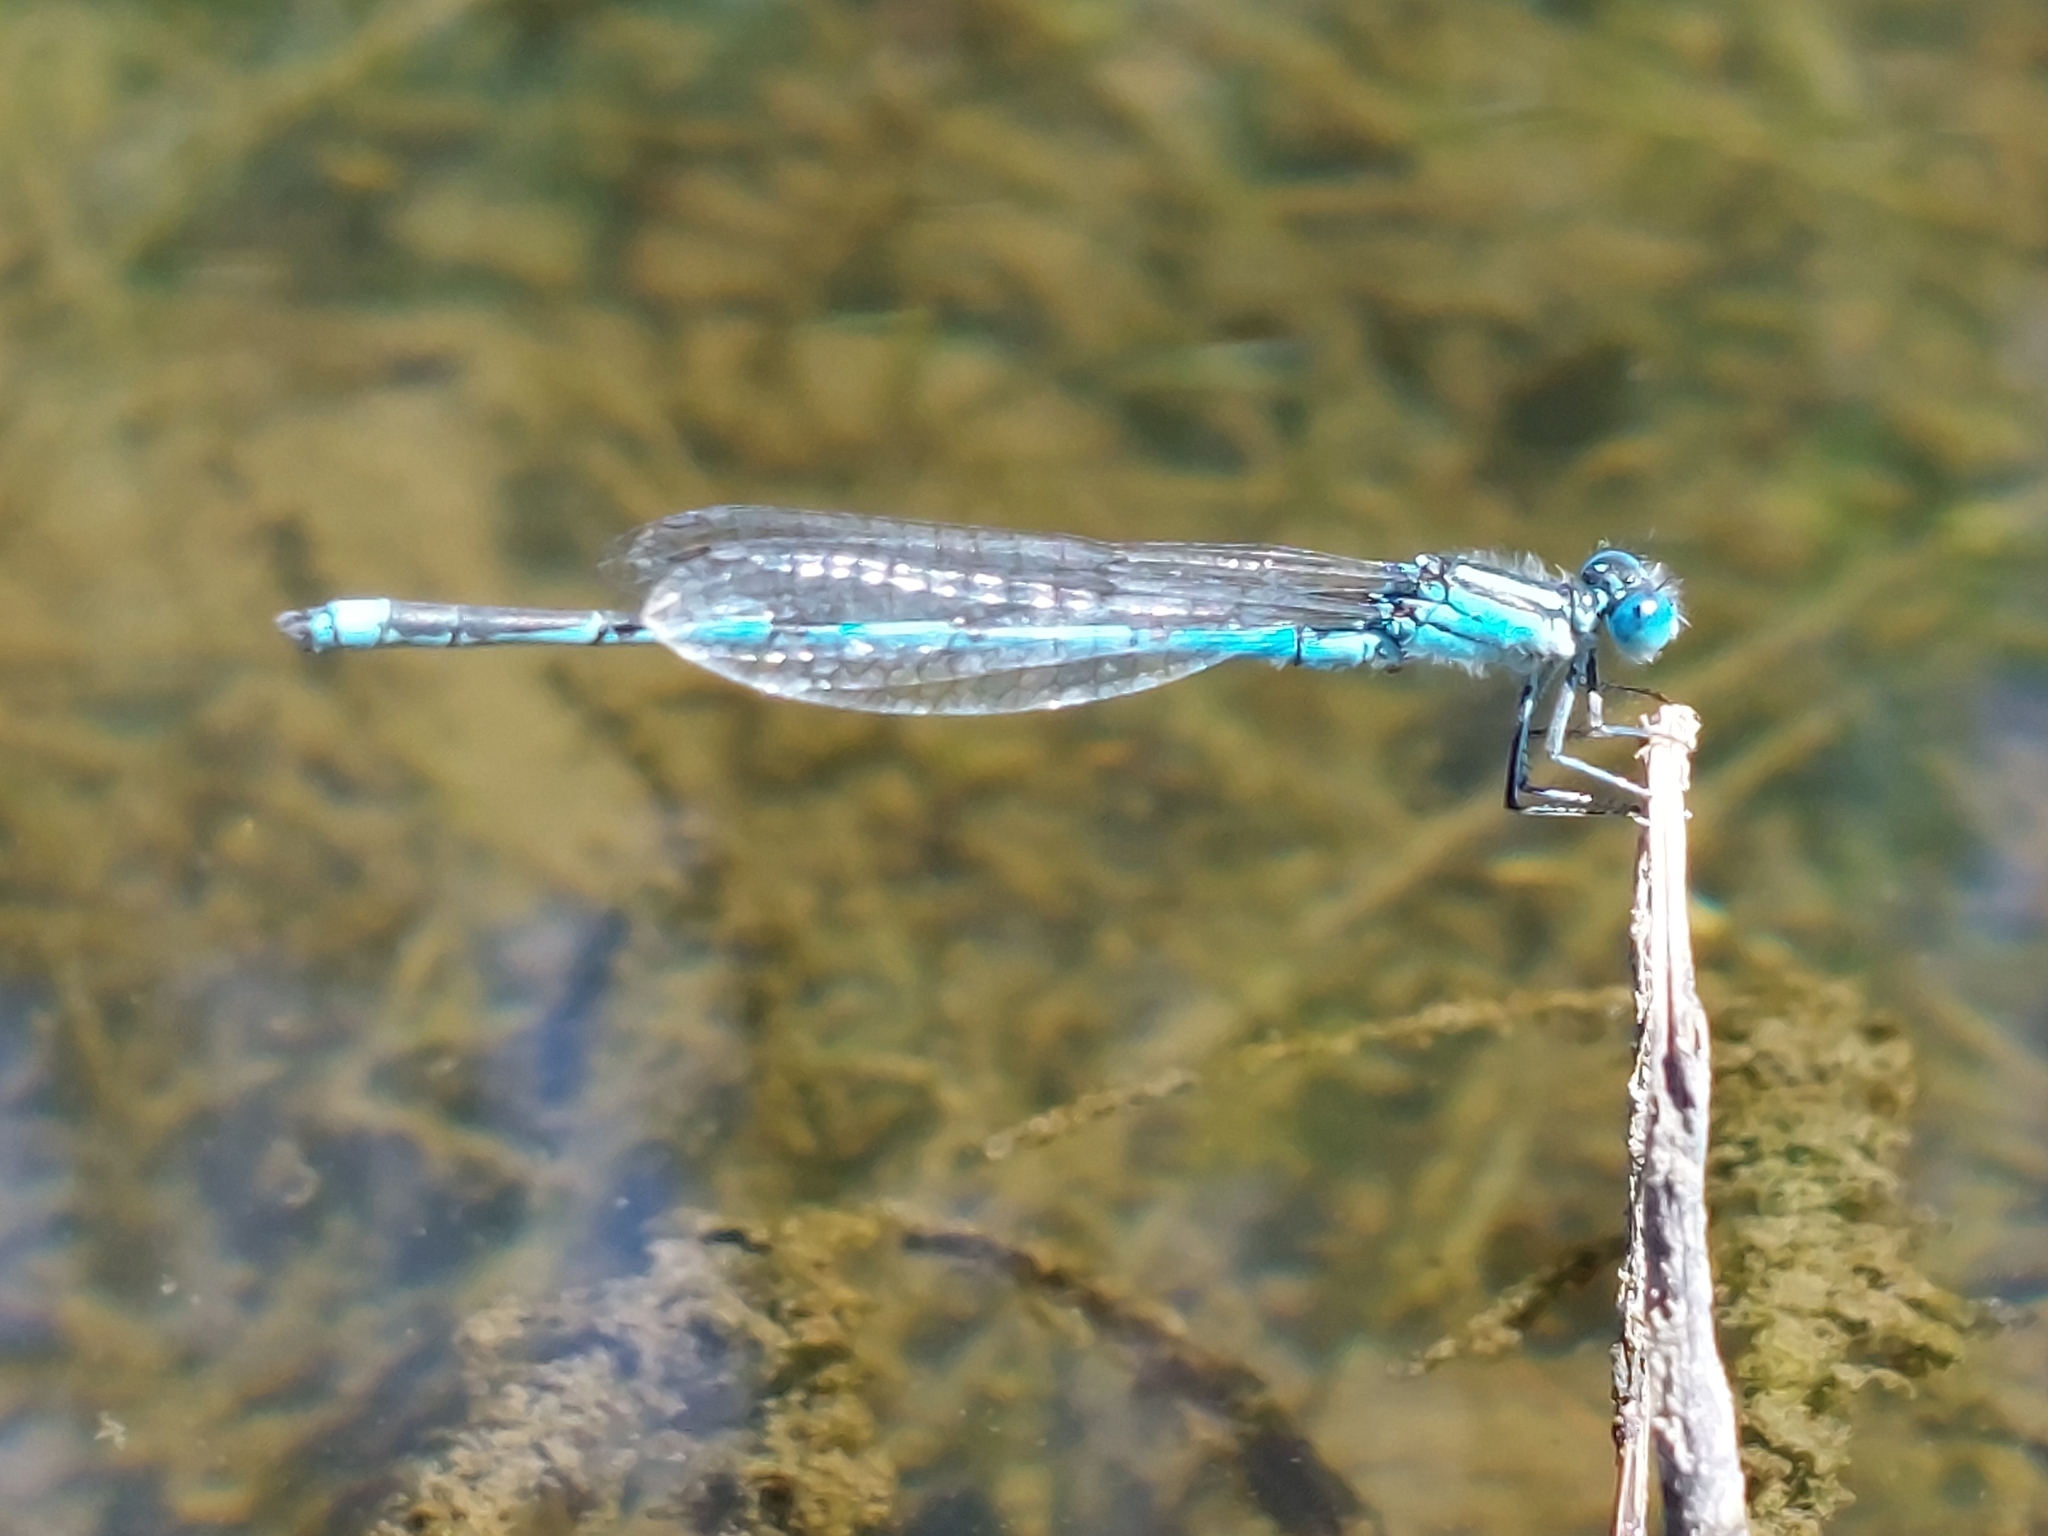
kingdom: Animalia
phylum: Arthropoda
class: Insecta
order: Odonata
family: Coenagrionidae
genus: Erythromma
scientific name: Erythromma lindenii
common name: Blue-eye
